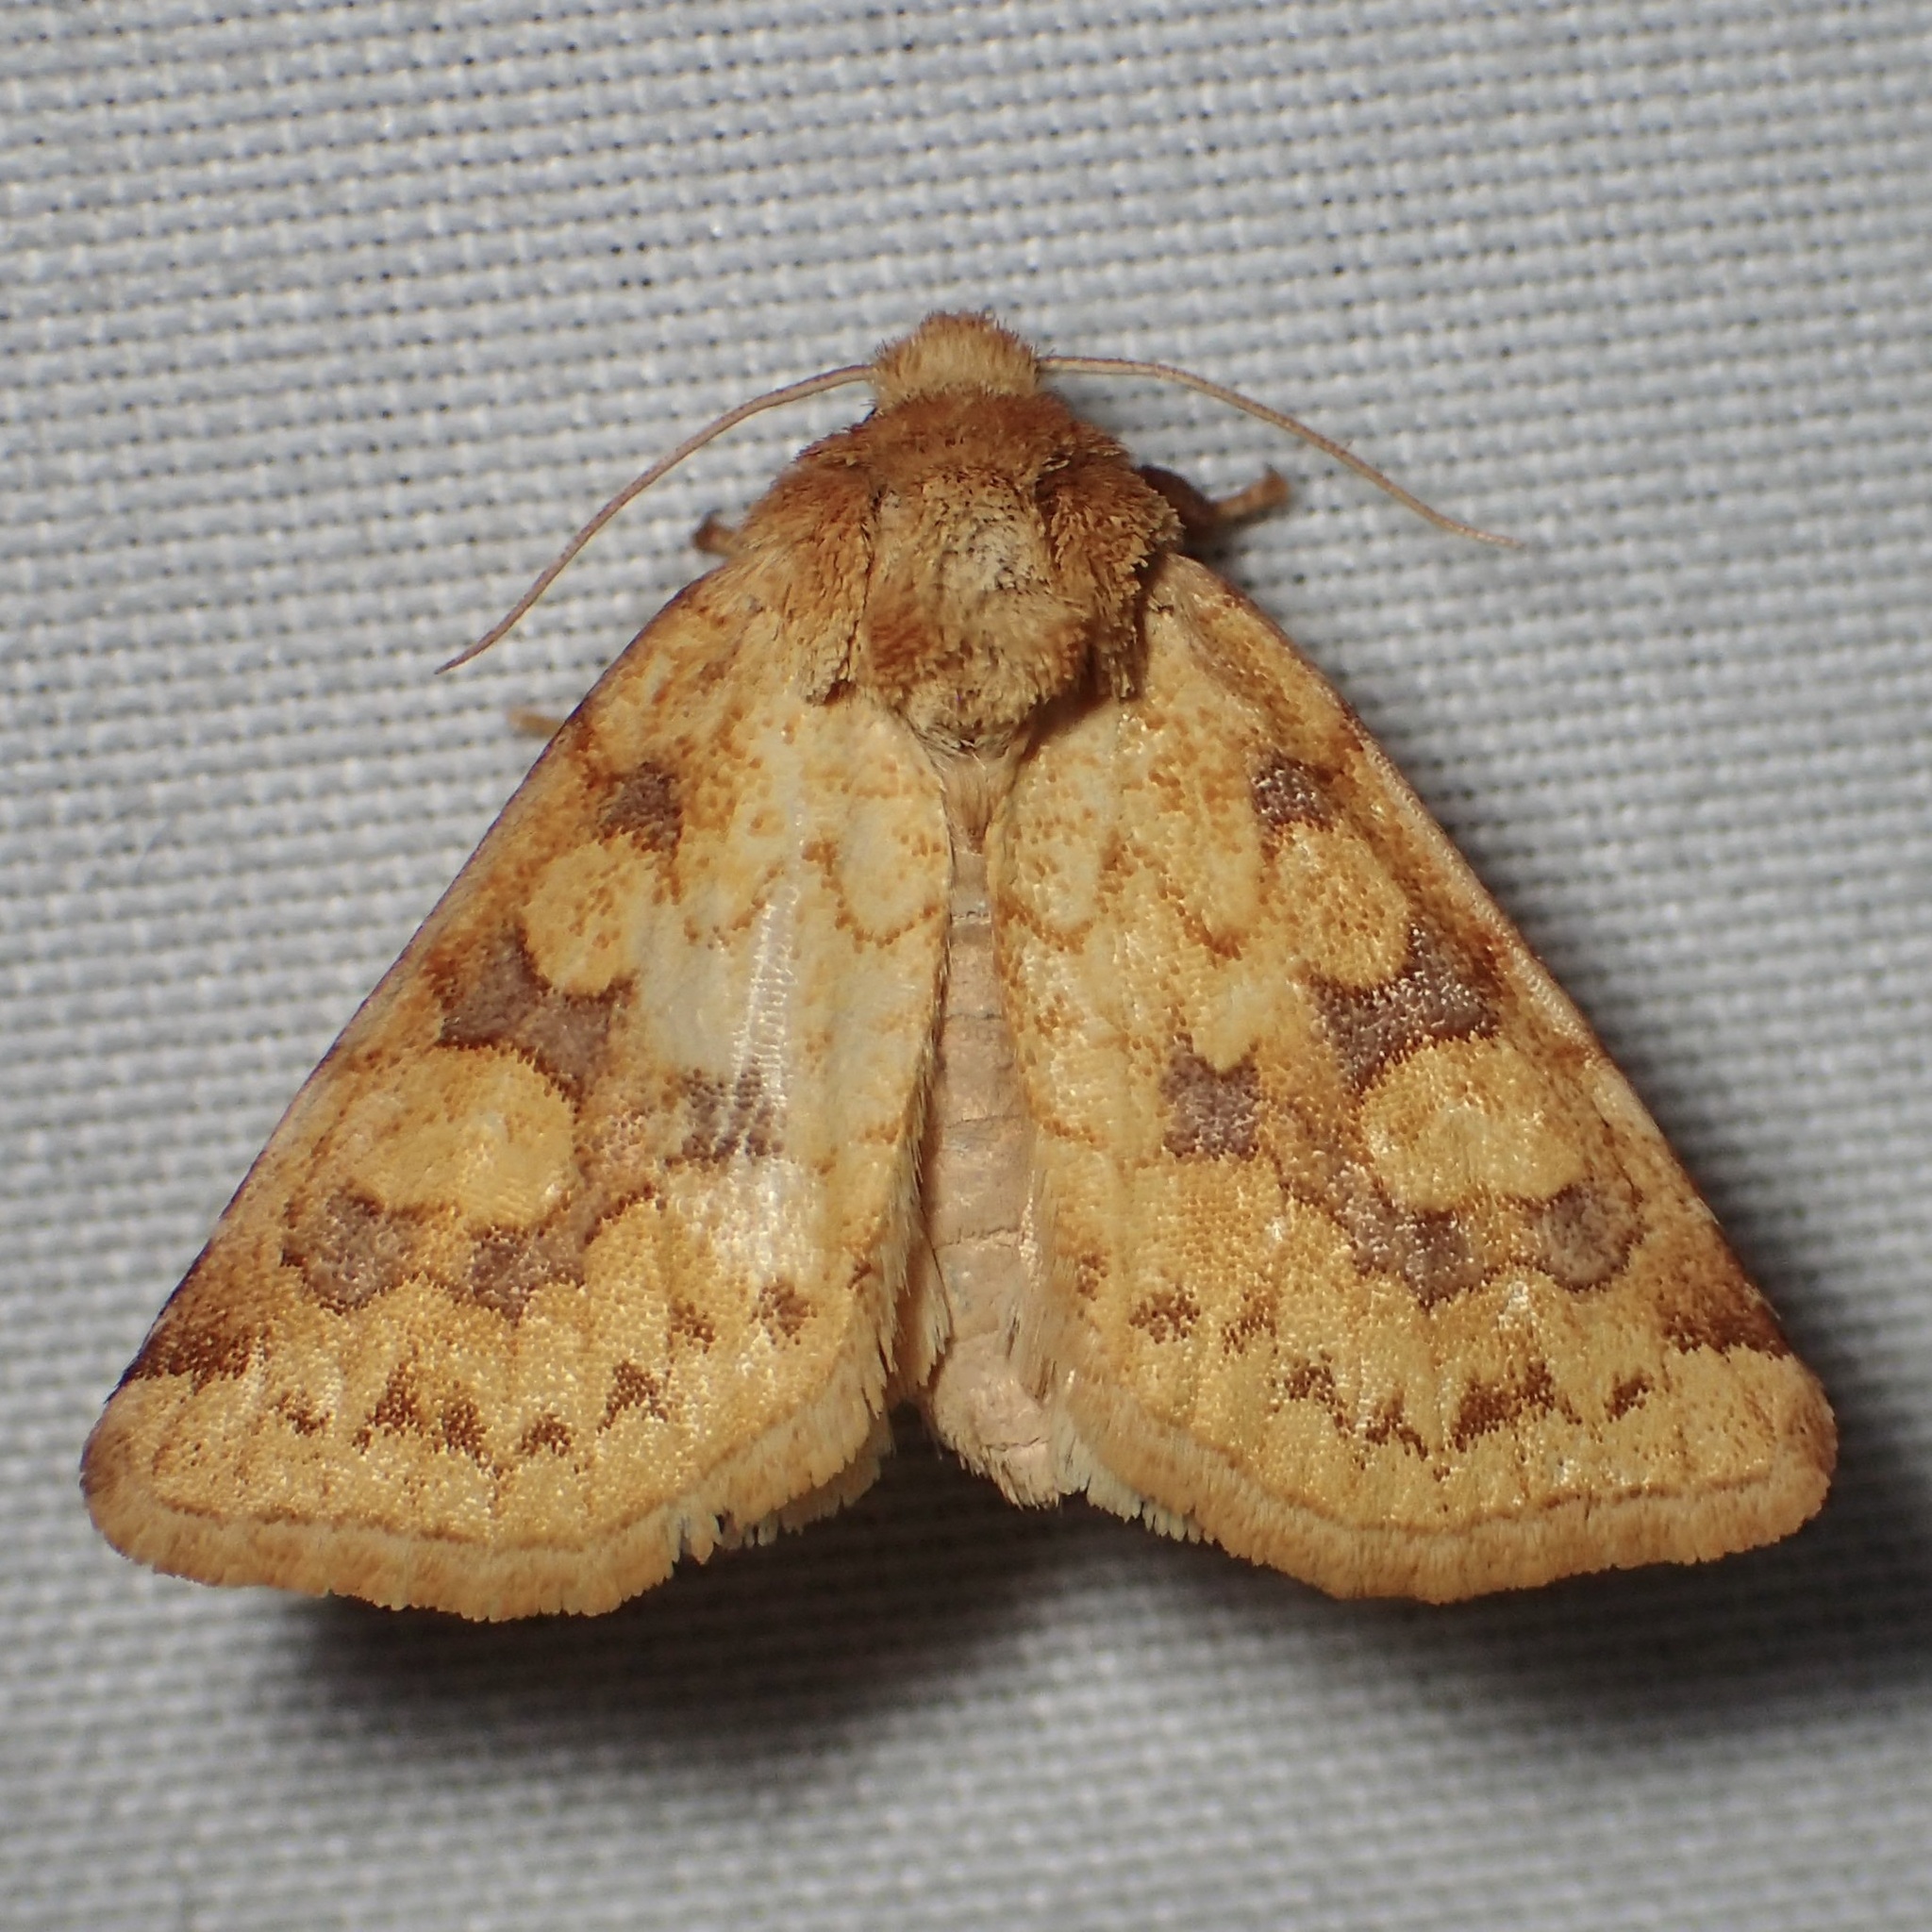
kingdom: Animalia
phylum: Arthropoda
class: Insecta
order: Lepidoptera
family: Noctuidae
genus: Nocloa
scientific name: Nocloa cordova
